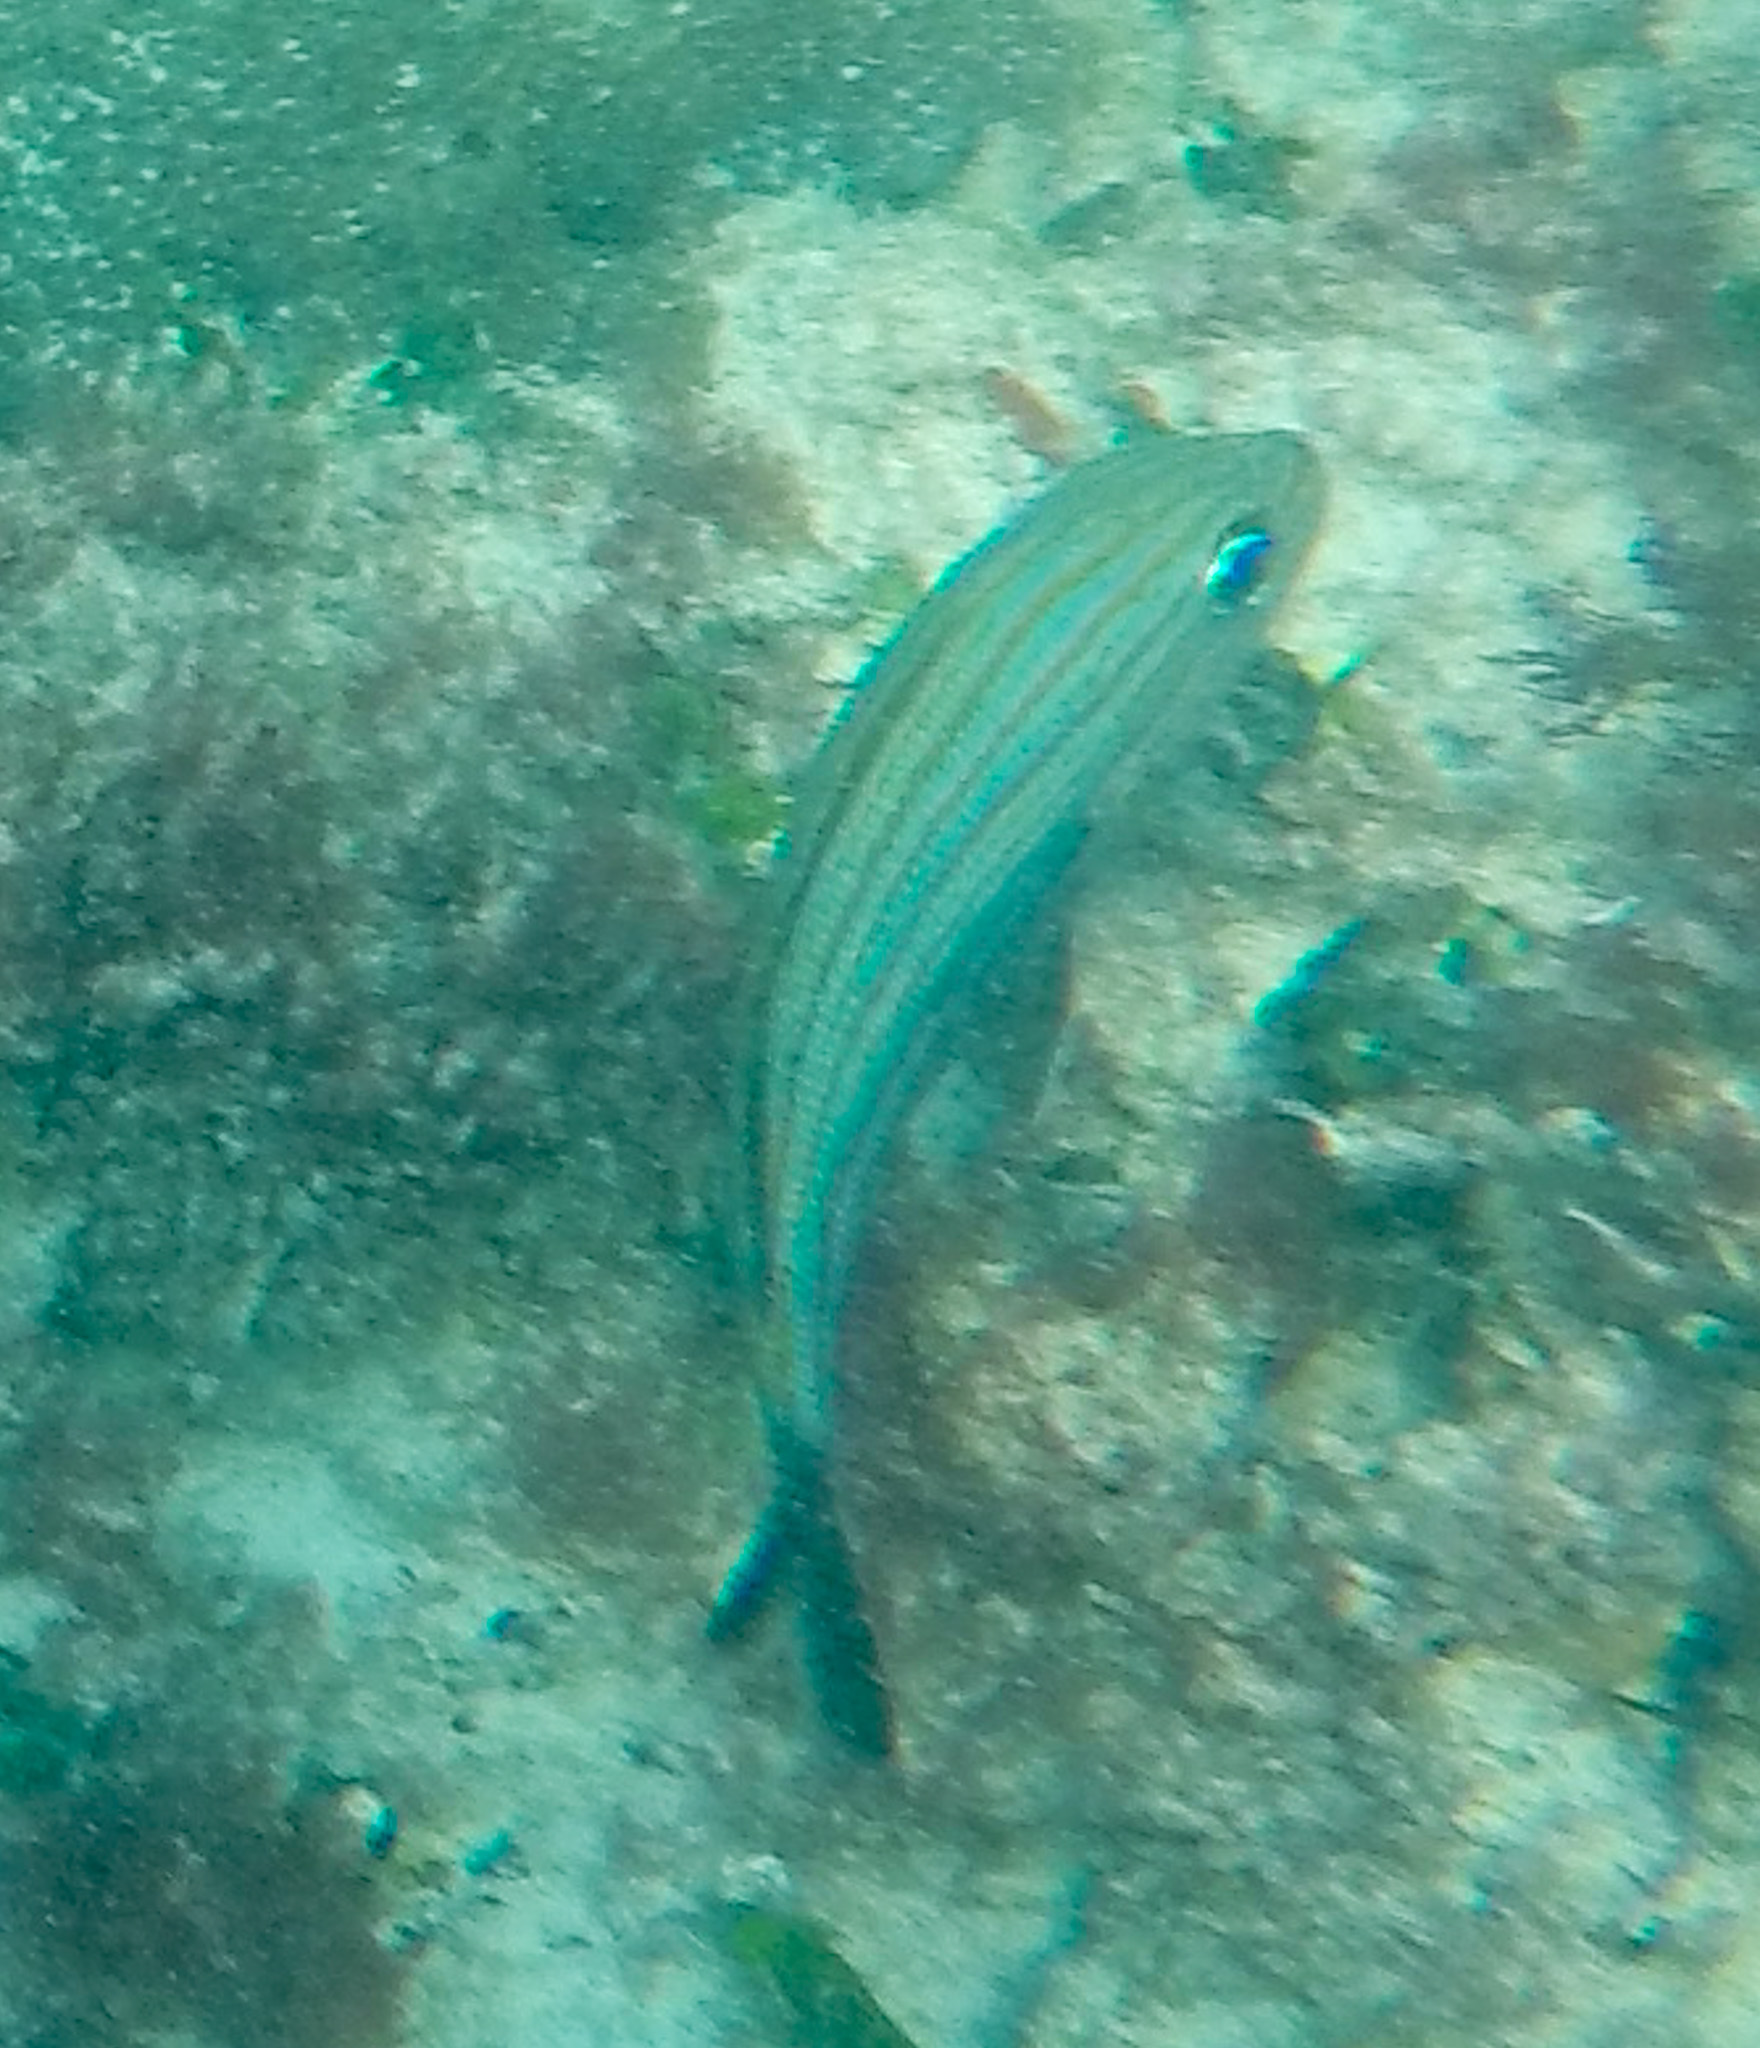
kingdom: Animalia
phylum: Chordata
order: Perciformes
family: Haemulidae
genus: Haemulon
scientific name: Haemulon carbonarium
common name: Caesar grunt
